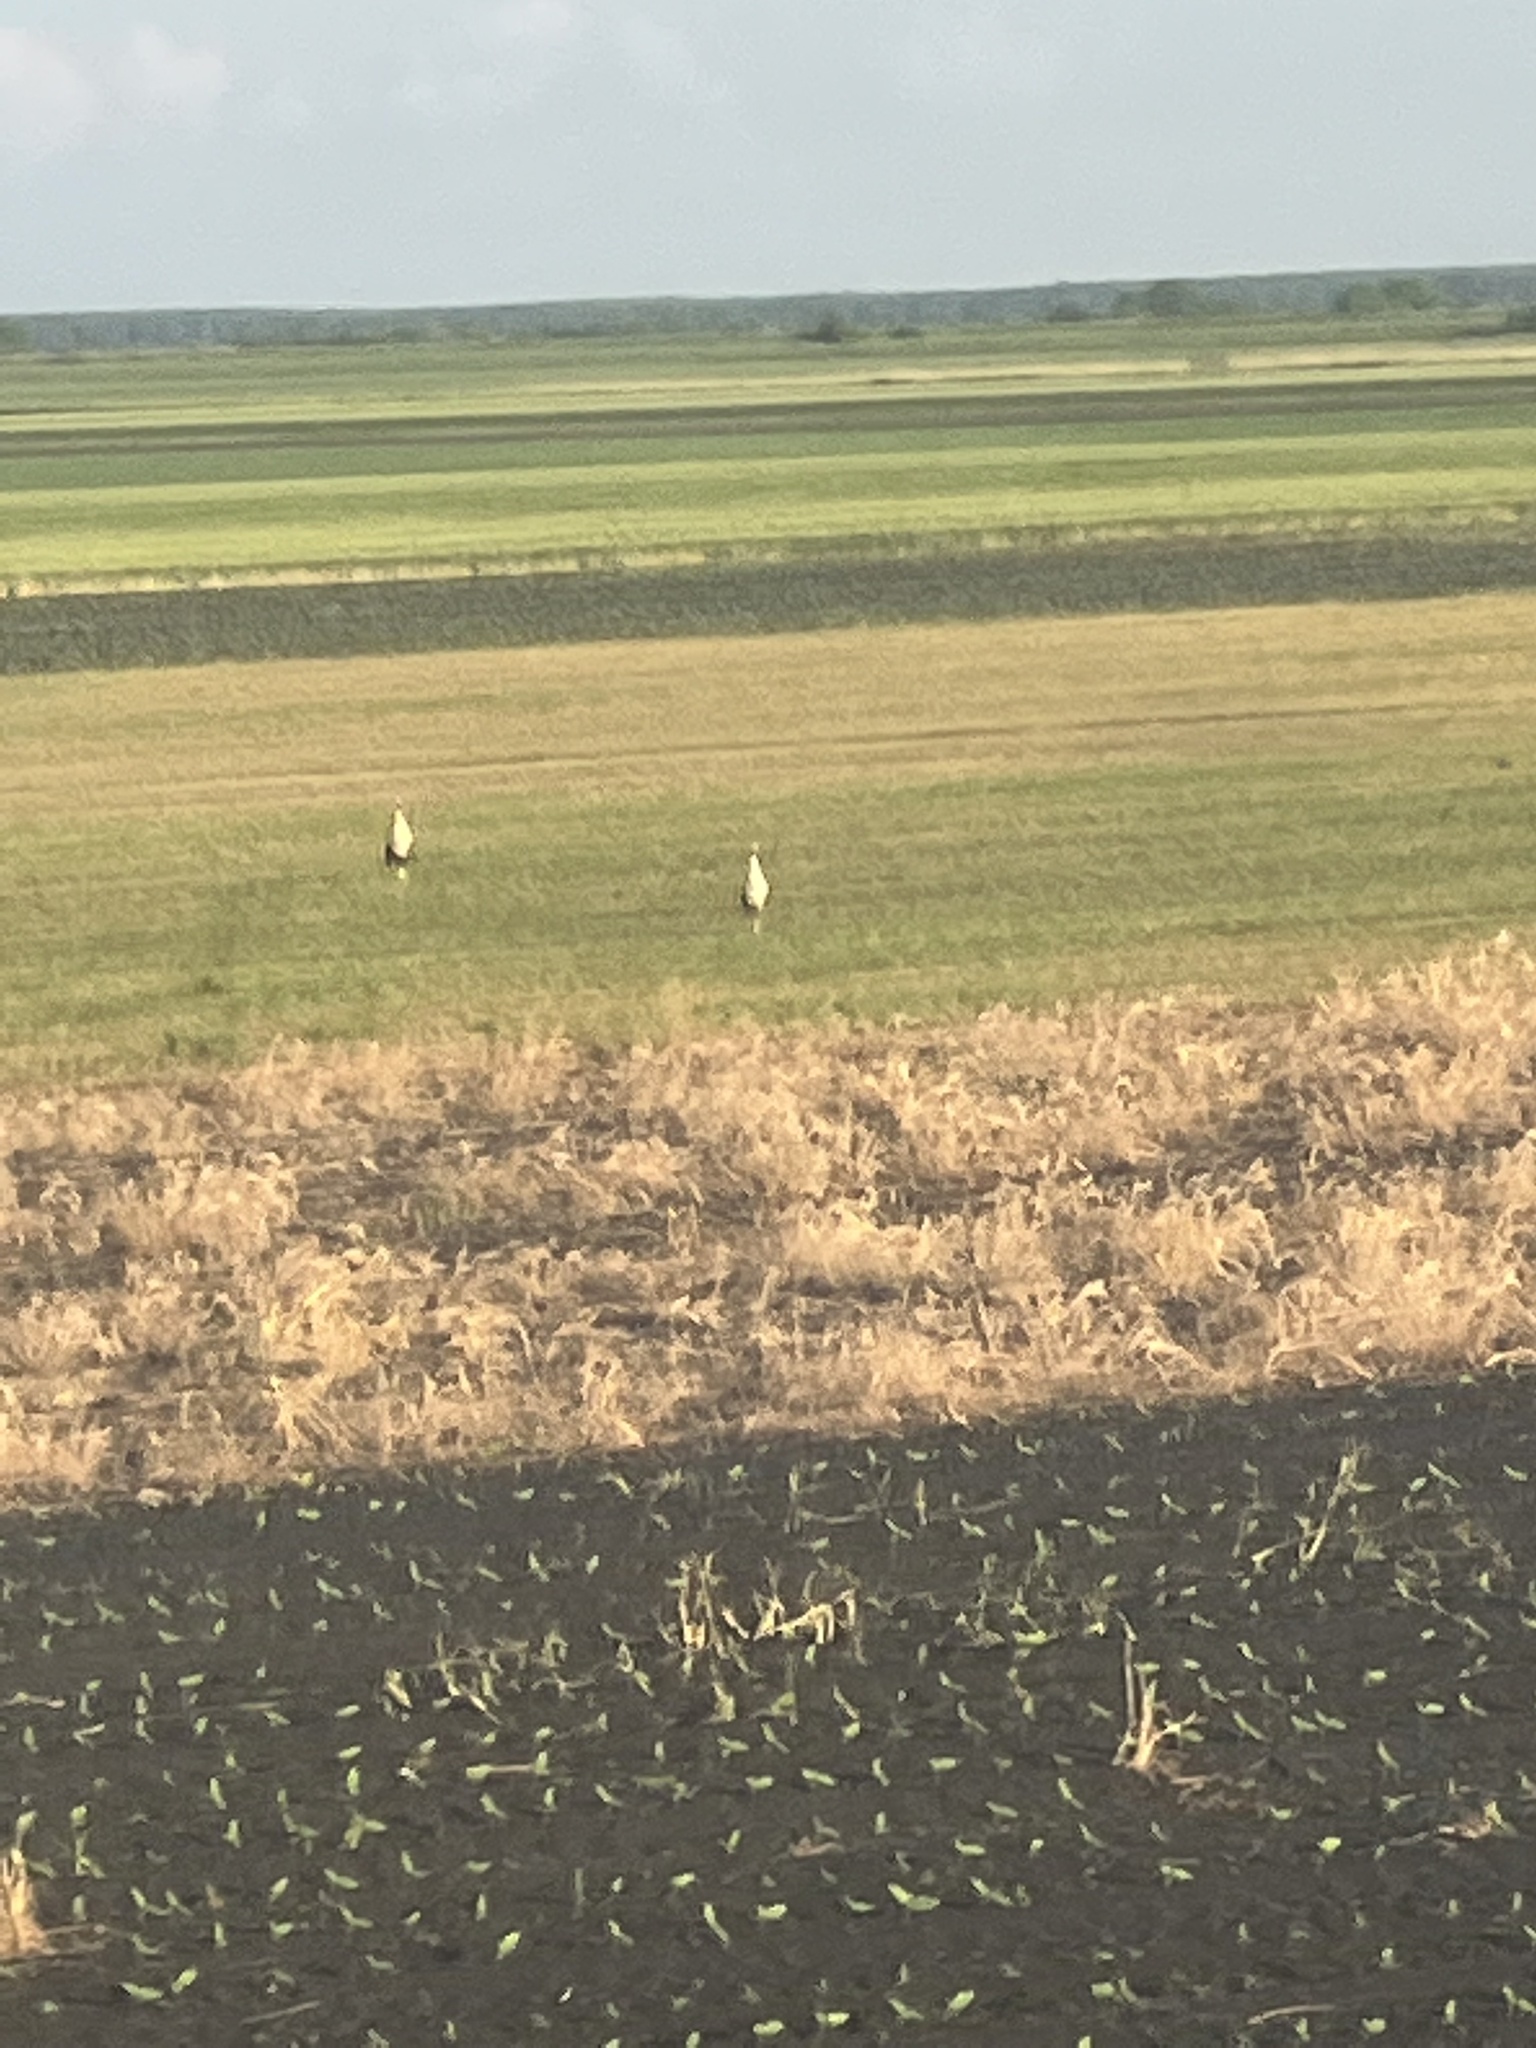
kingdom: Animalia
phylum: Chordata
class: Aves
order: Ciconiiformes
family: Ciconiidae
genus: Ciconia
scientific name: Ciconia ciconia
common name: White stork
